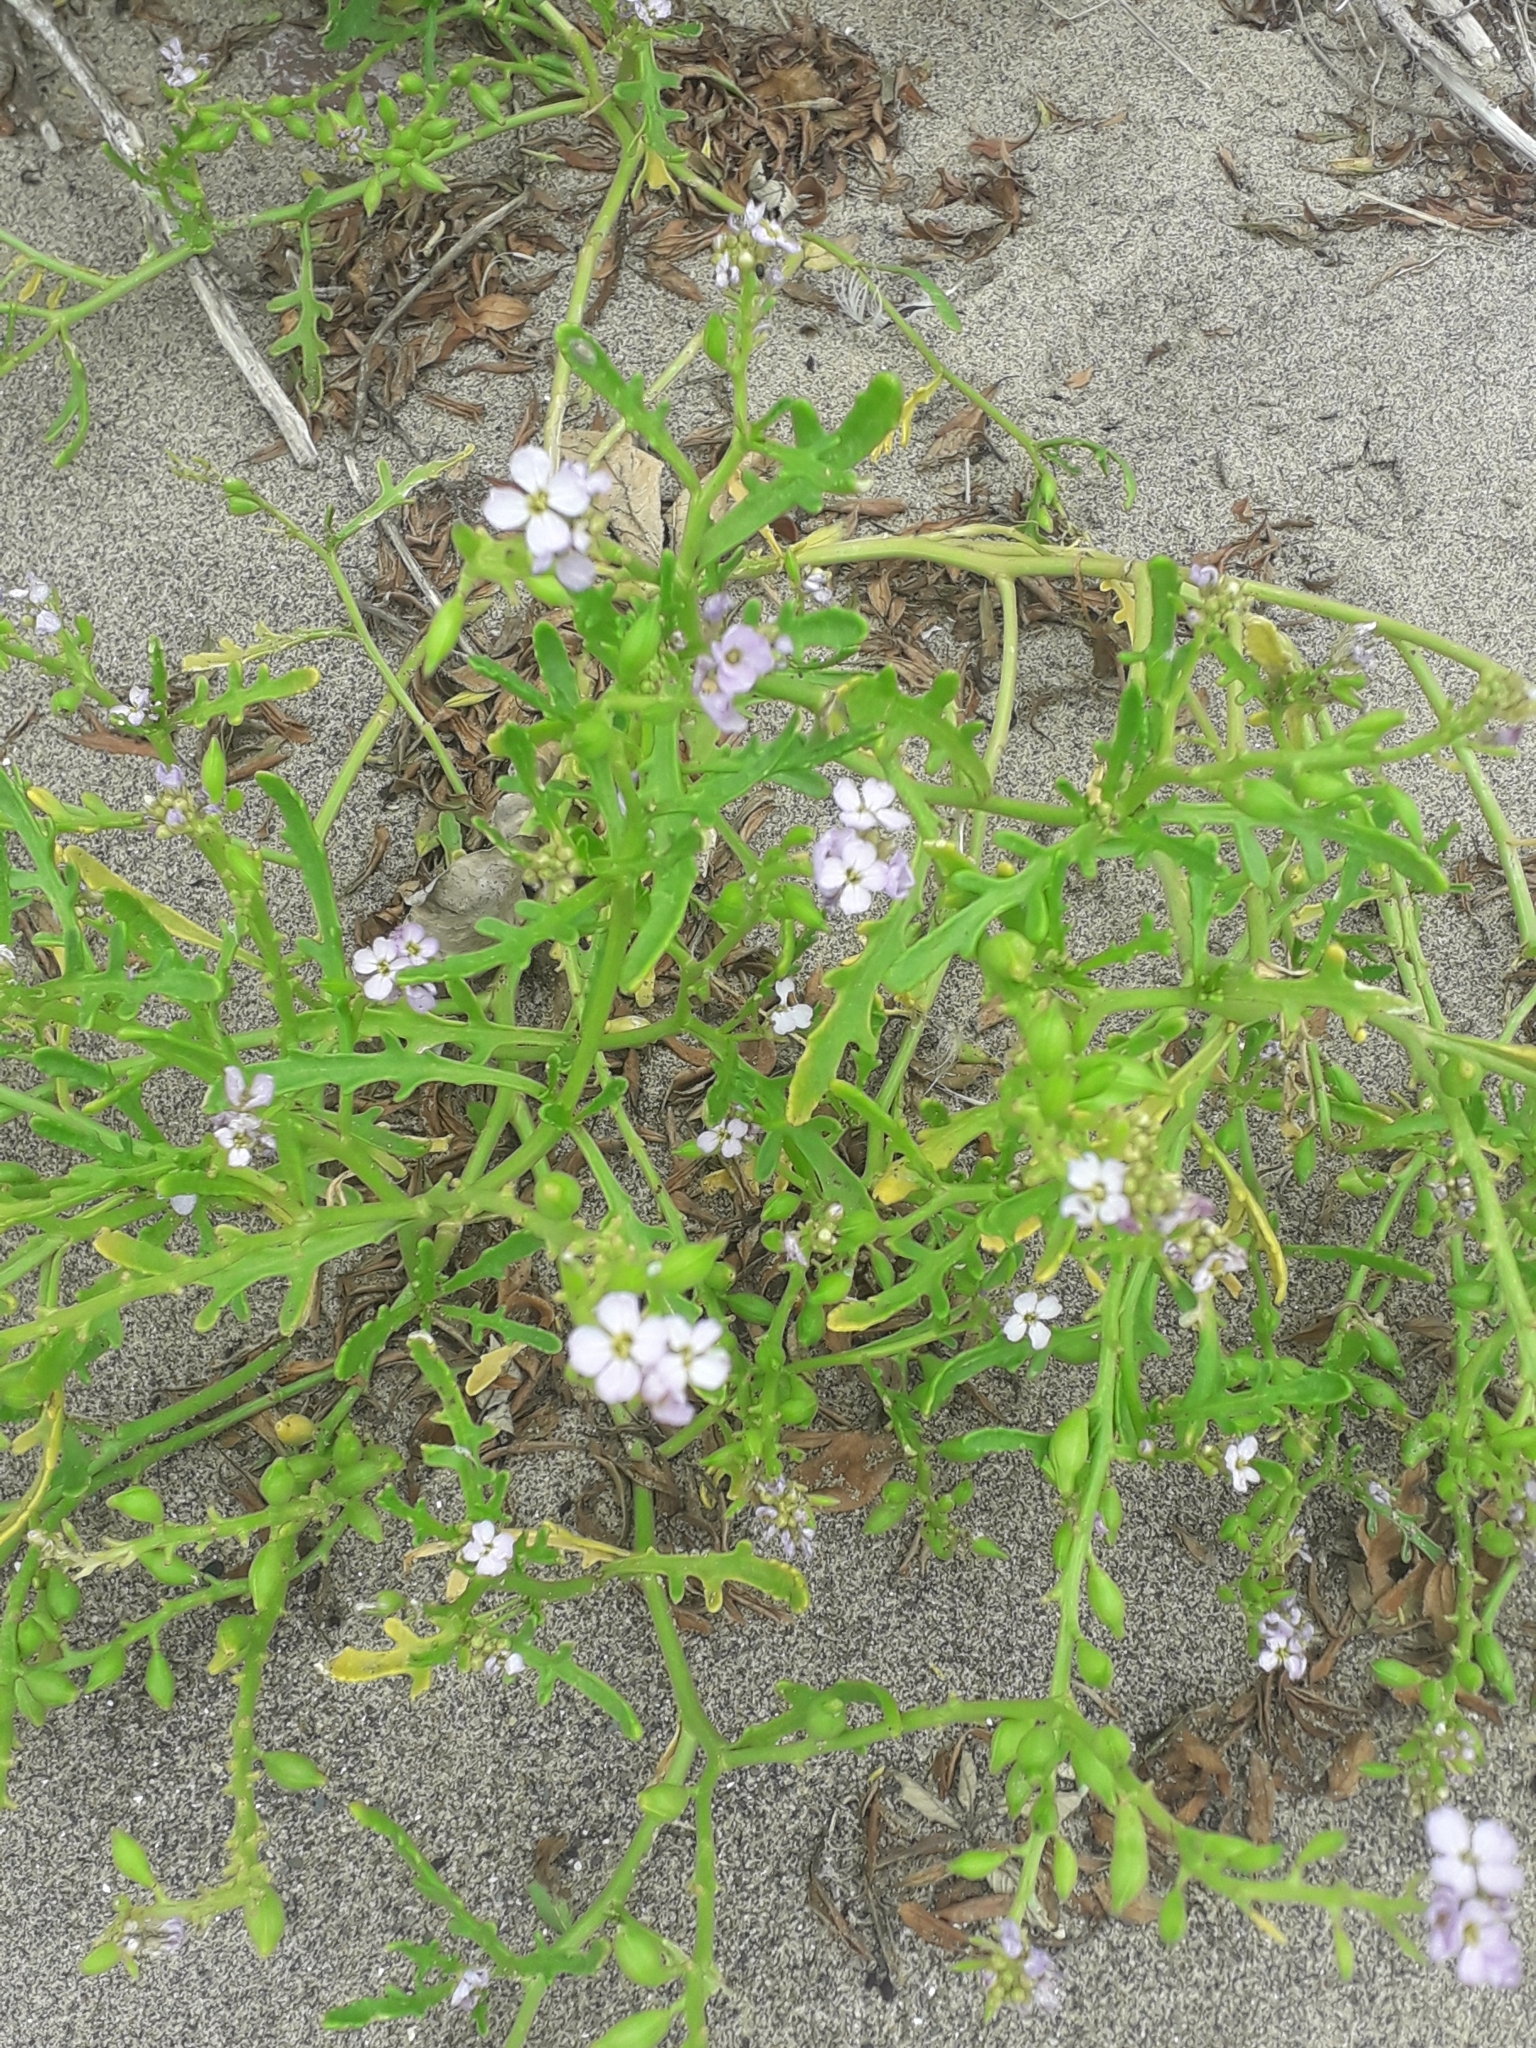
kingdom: Plantae
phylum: Tracheophyta
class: Magnoliopsida
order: Brassicales
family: Brassicaceae
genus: Cakile
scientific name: Cakile maritima
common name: Sea rocket
